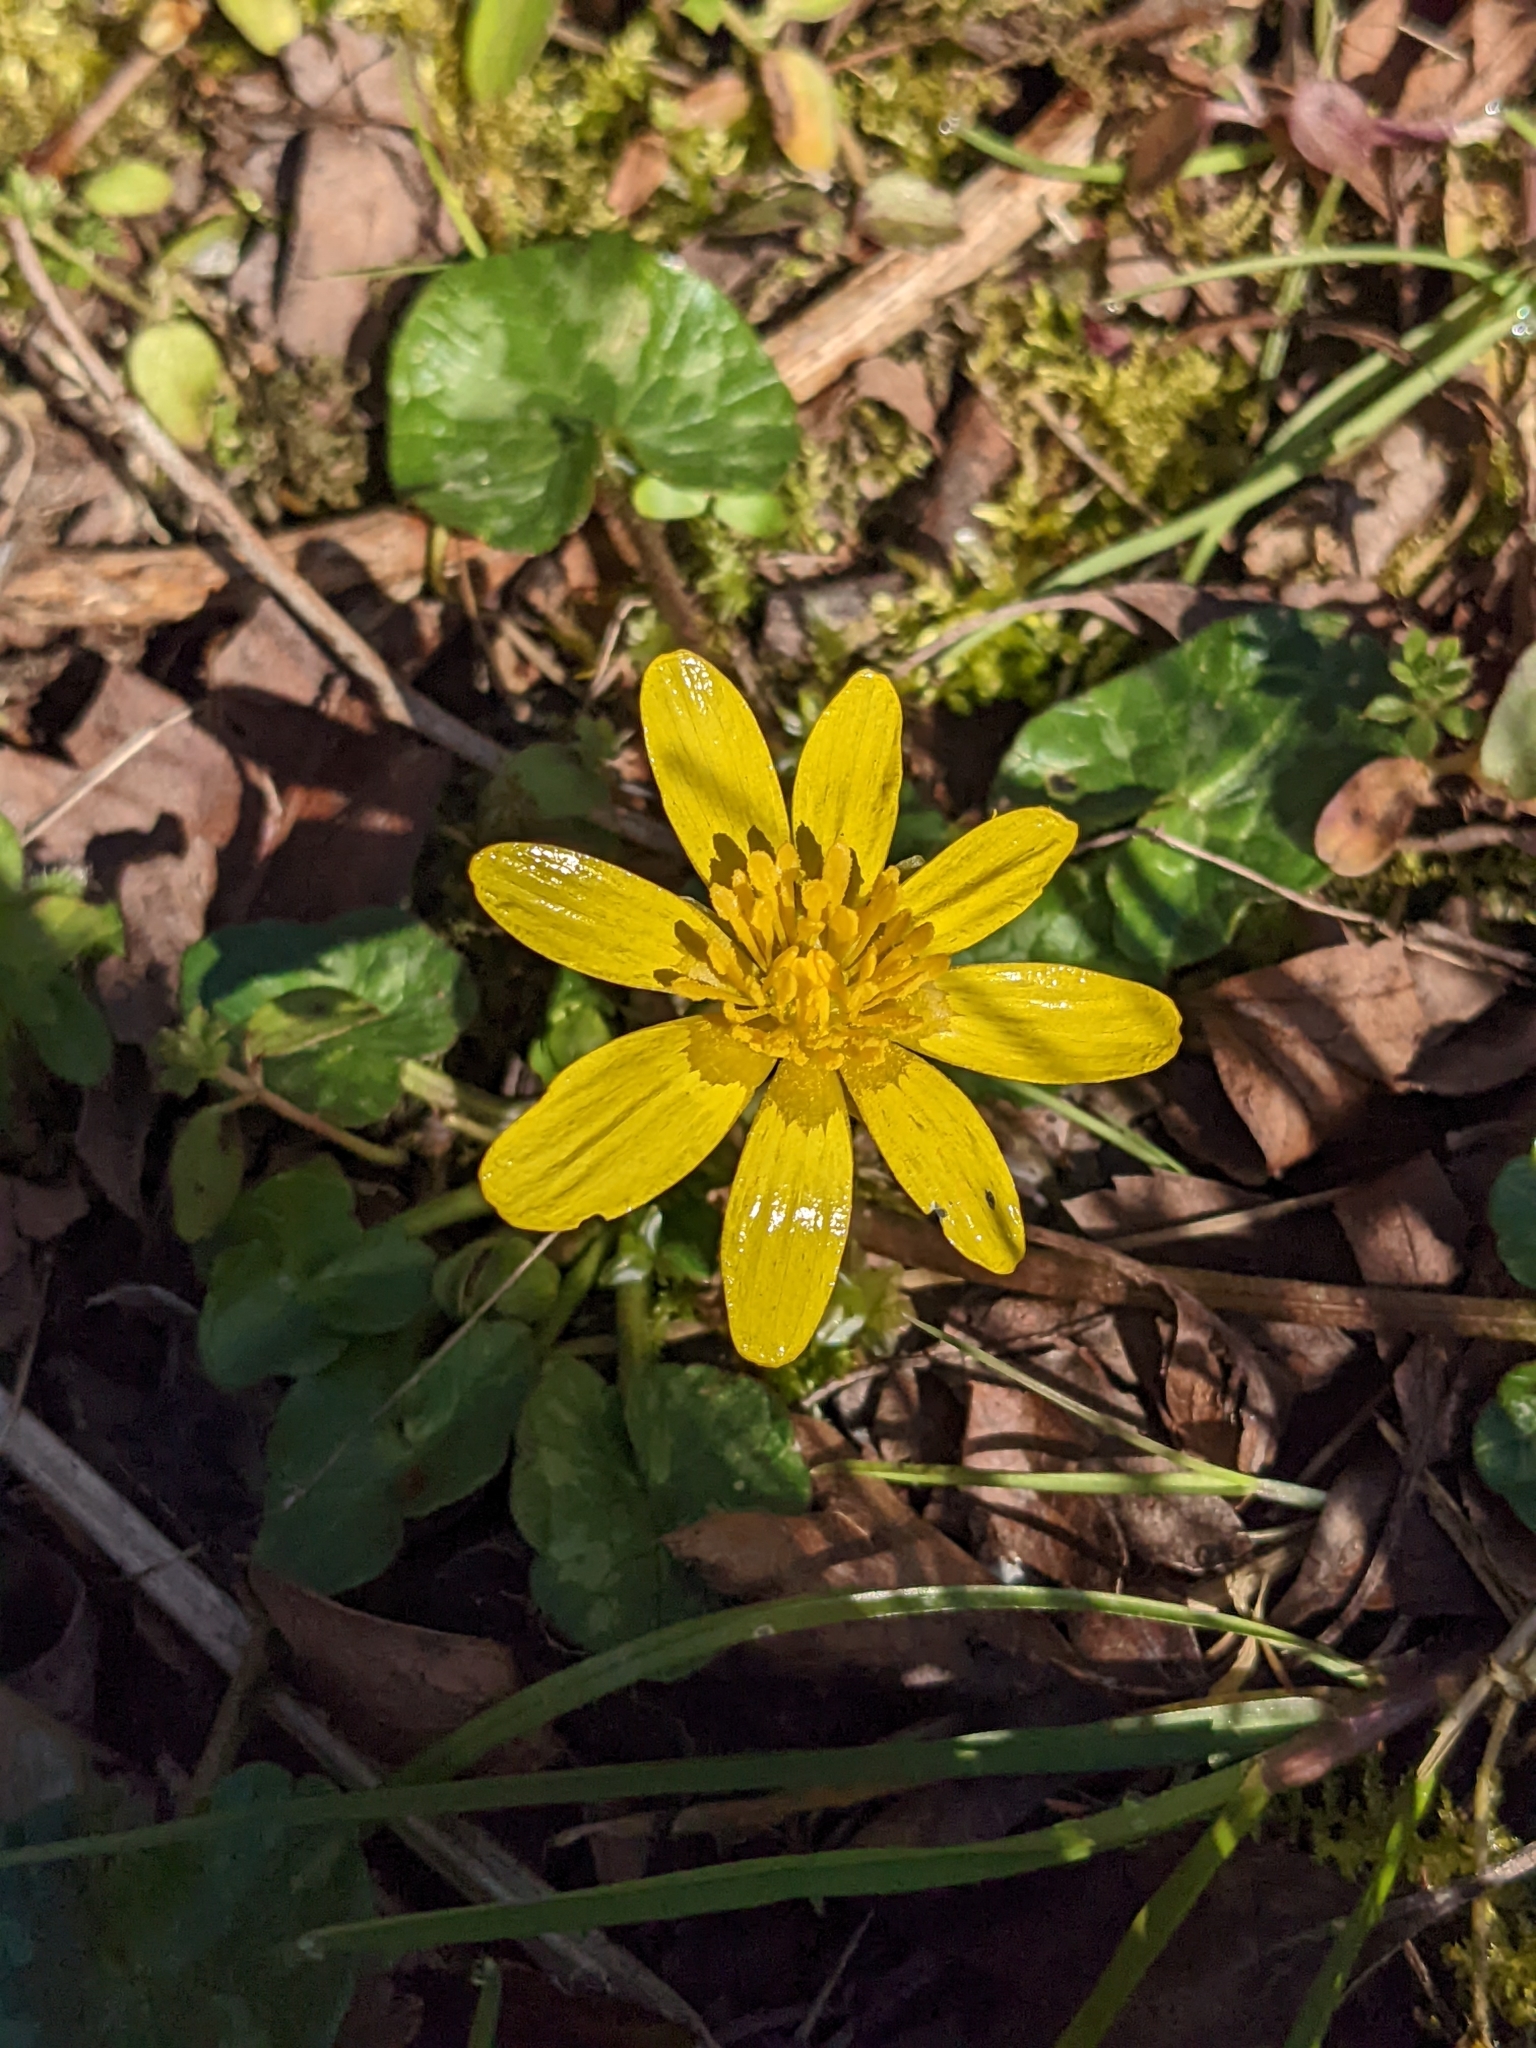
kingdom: Plantae
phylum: Tracheophyta
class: Magnoliopsida
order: Ranunculales
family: Ranunculaceae
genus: Ficaria
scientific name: Ficaria verna
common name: Lesser celandine
